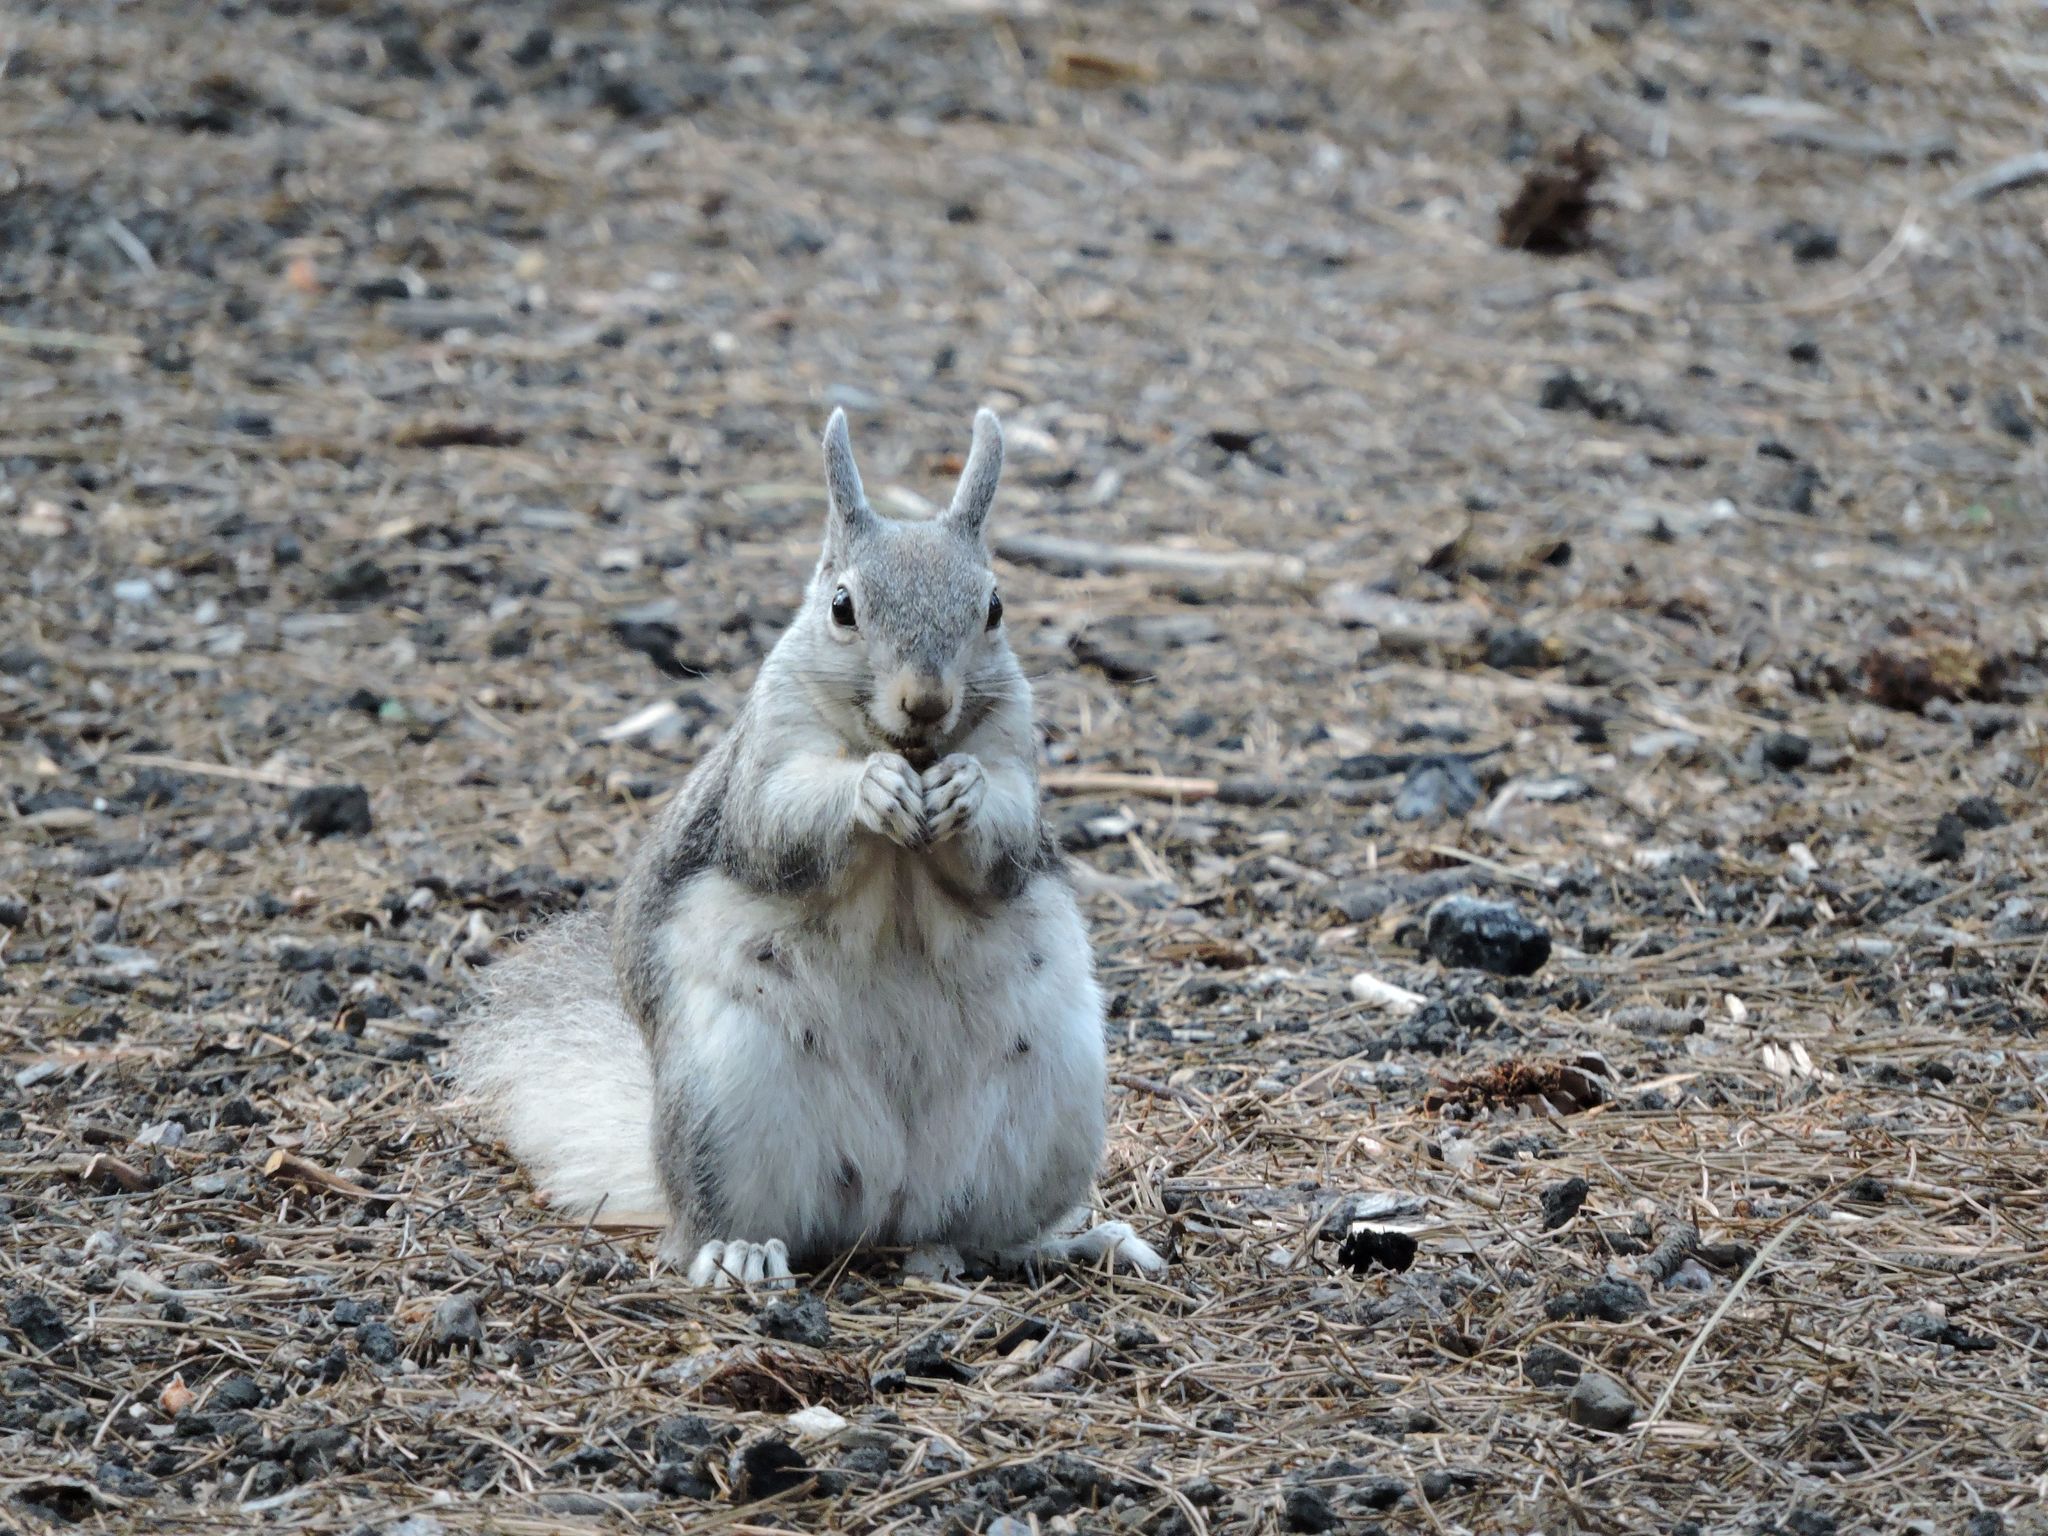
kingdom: Animalia
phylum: Chordata
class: Mammalia
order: Rodentia
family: Sciuridae
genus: Sciurus
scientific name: Sciurus aberti
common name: Abert's squirrel
